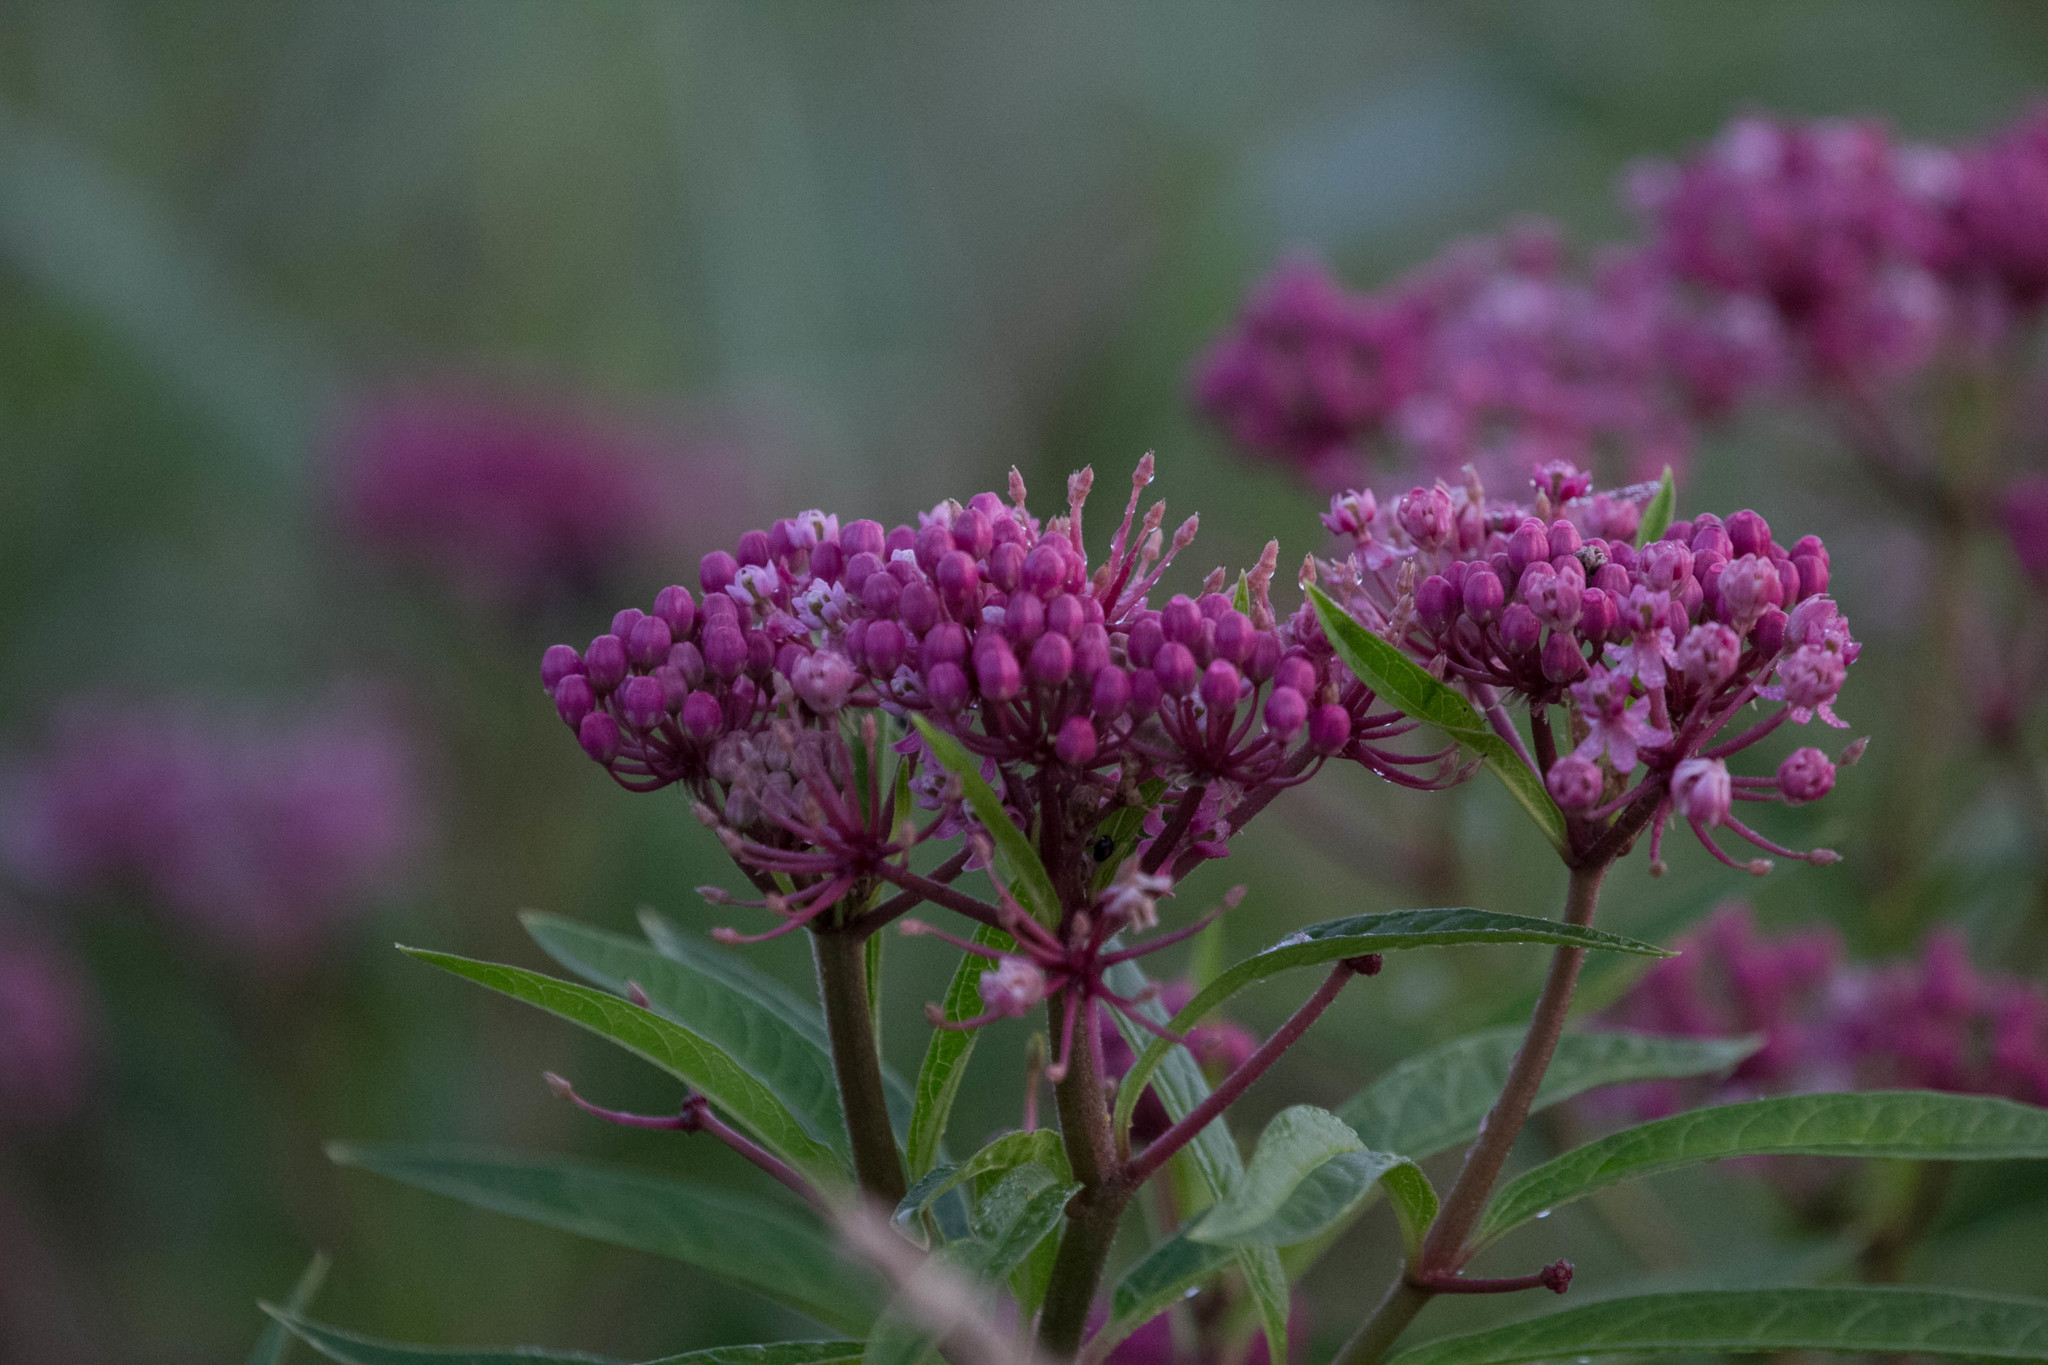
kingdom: Plantae
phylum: Tracheophyta
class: Magnoliopsida
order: Gentianales
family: Apocynaceae
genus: Asclepias
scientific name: Asclepias incarnata
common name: Swamp milkweed
